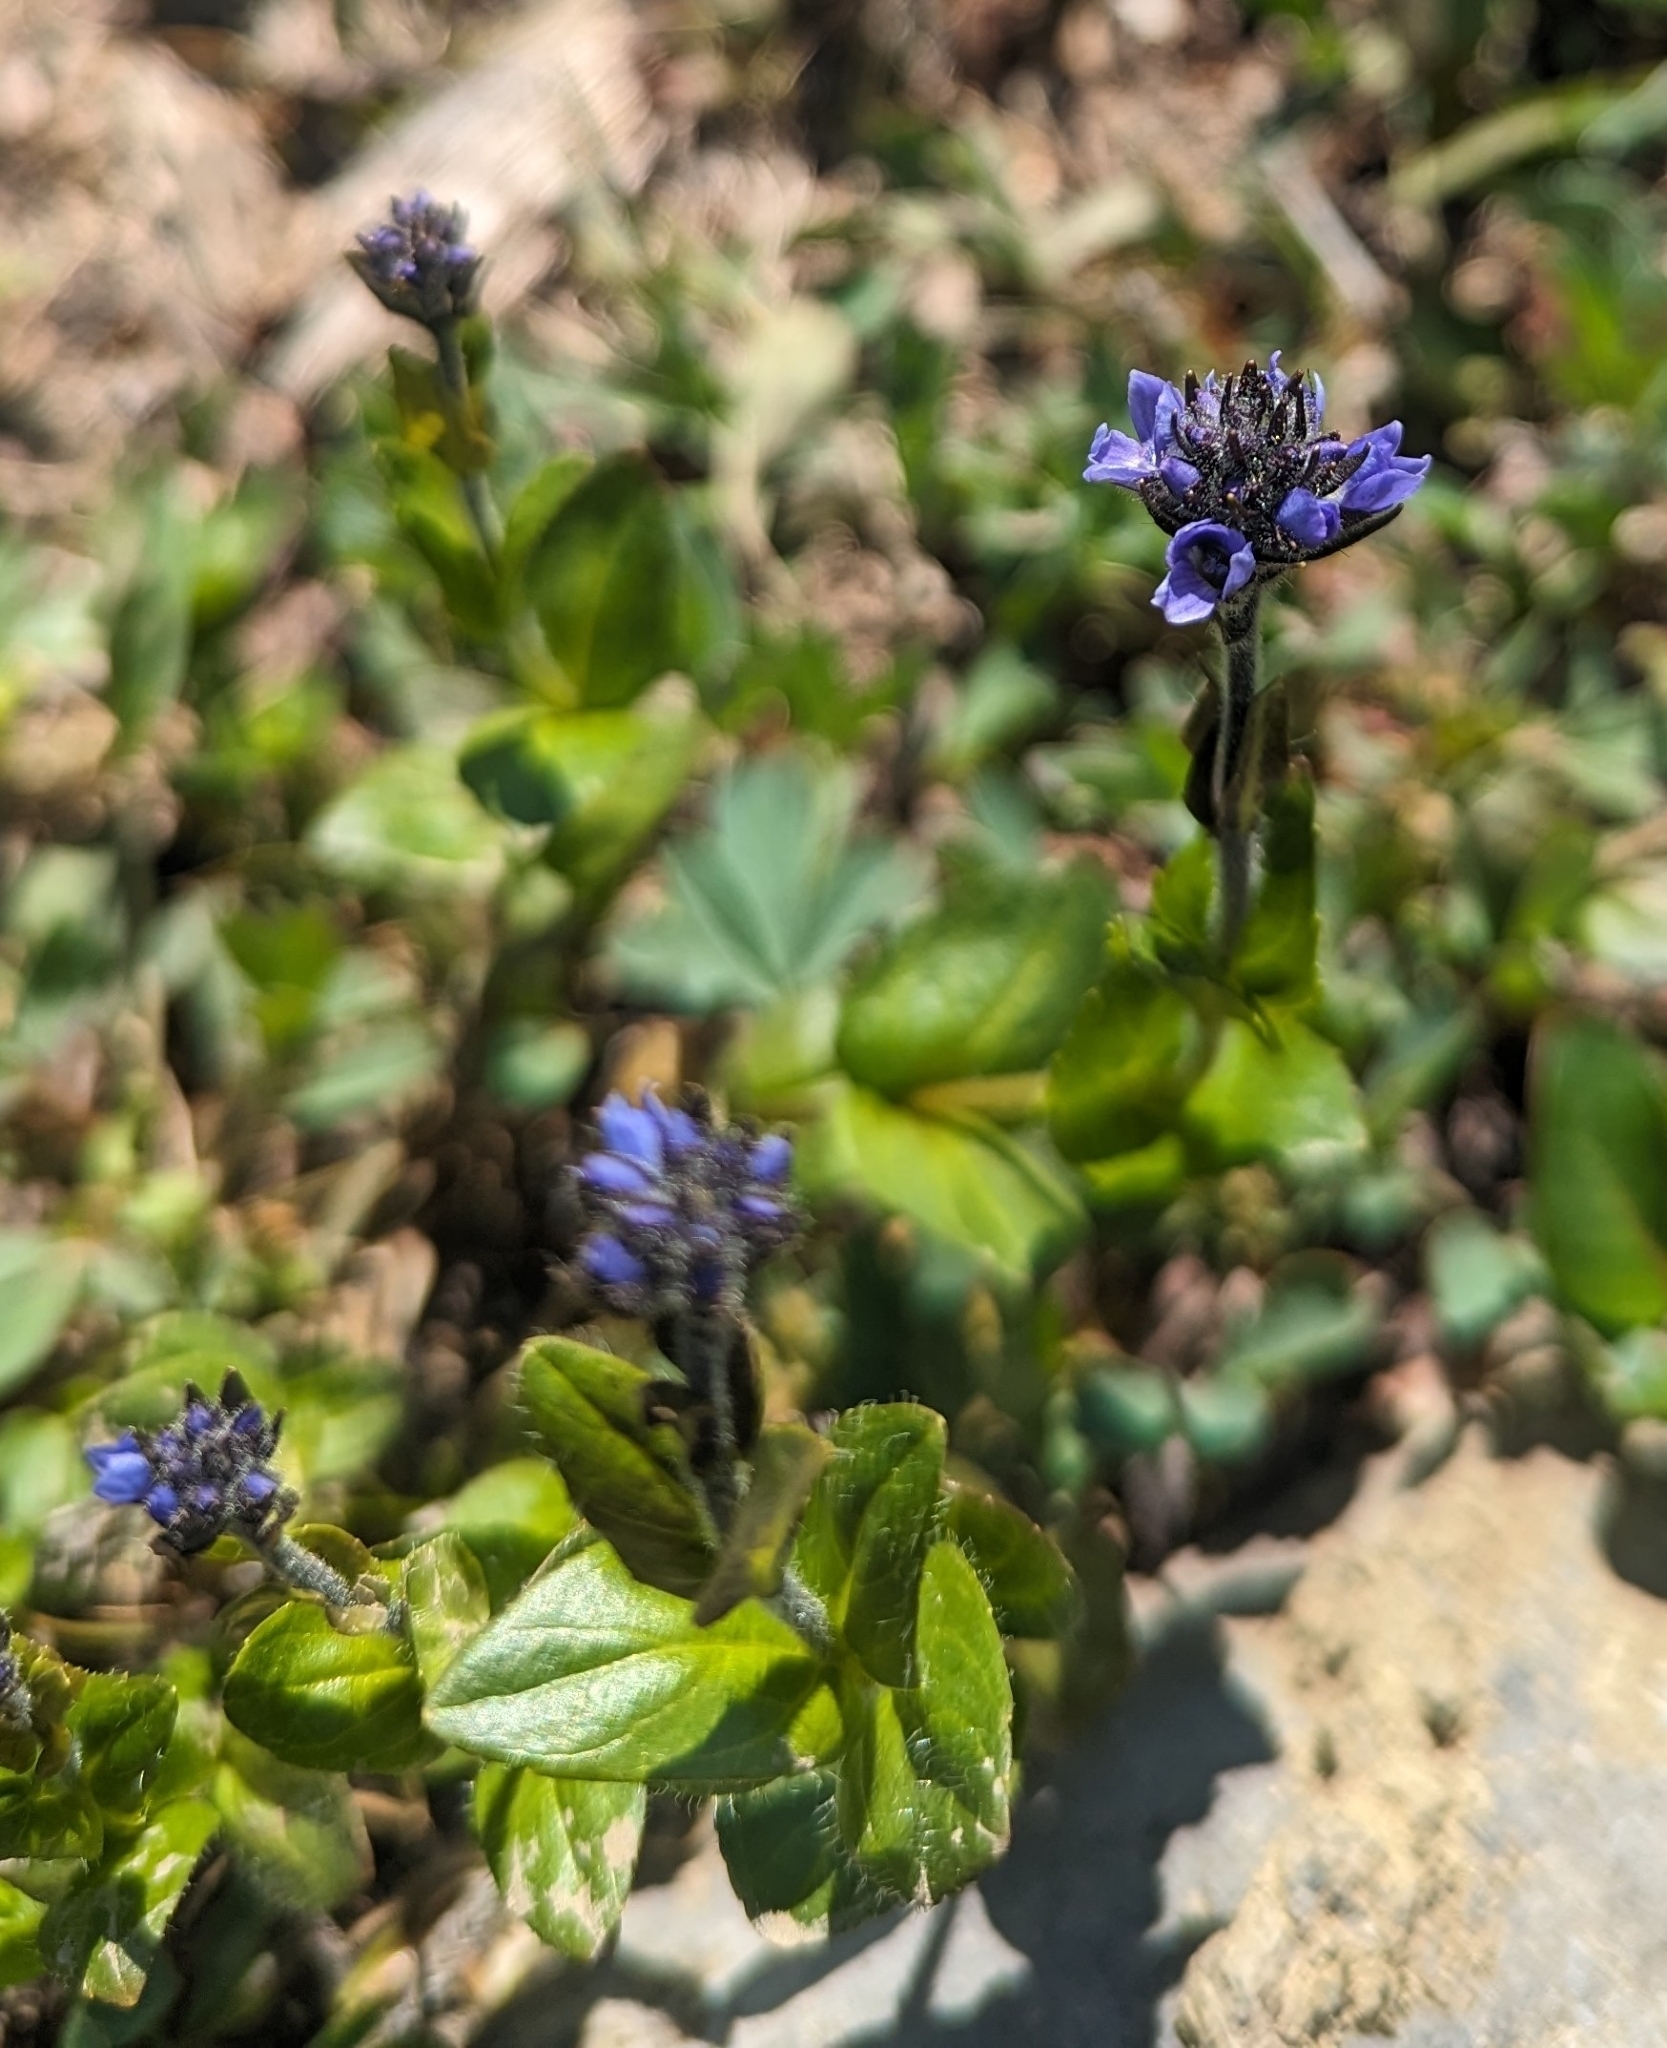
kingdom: Plantae
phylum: Tracheophyta
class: Magnoliopsida
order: Lamiales
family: Plantaginaceae
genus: Veronica
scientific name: Veronica wormskjoldii
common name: American alpine speedwell
